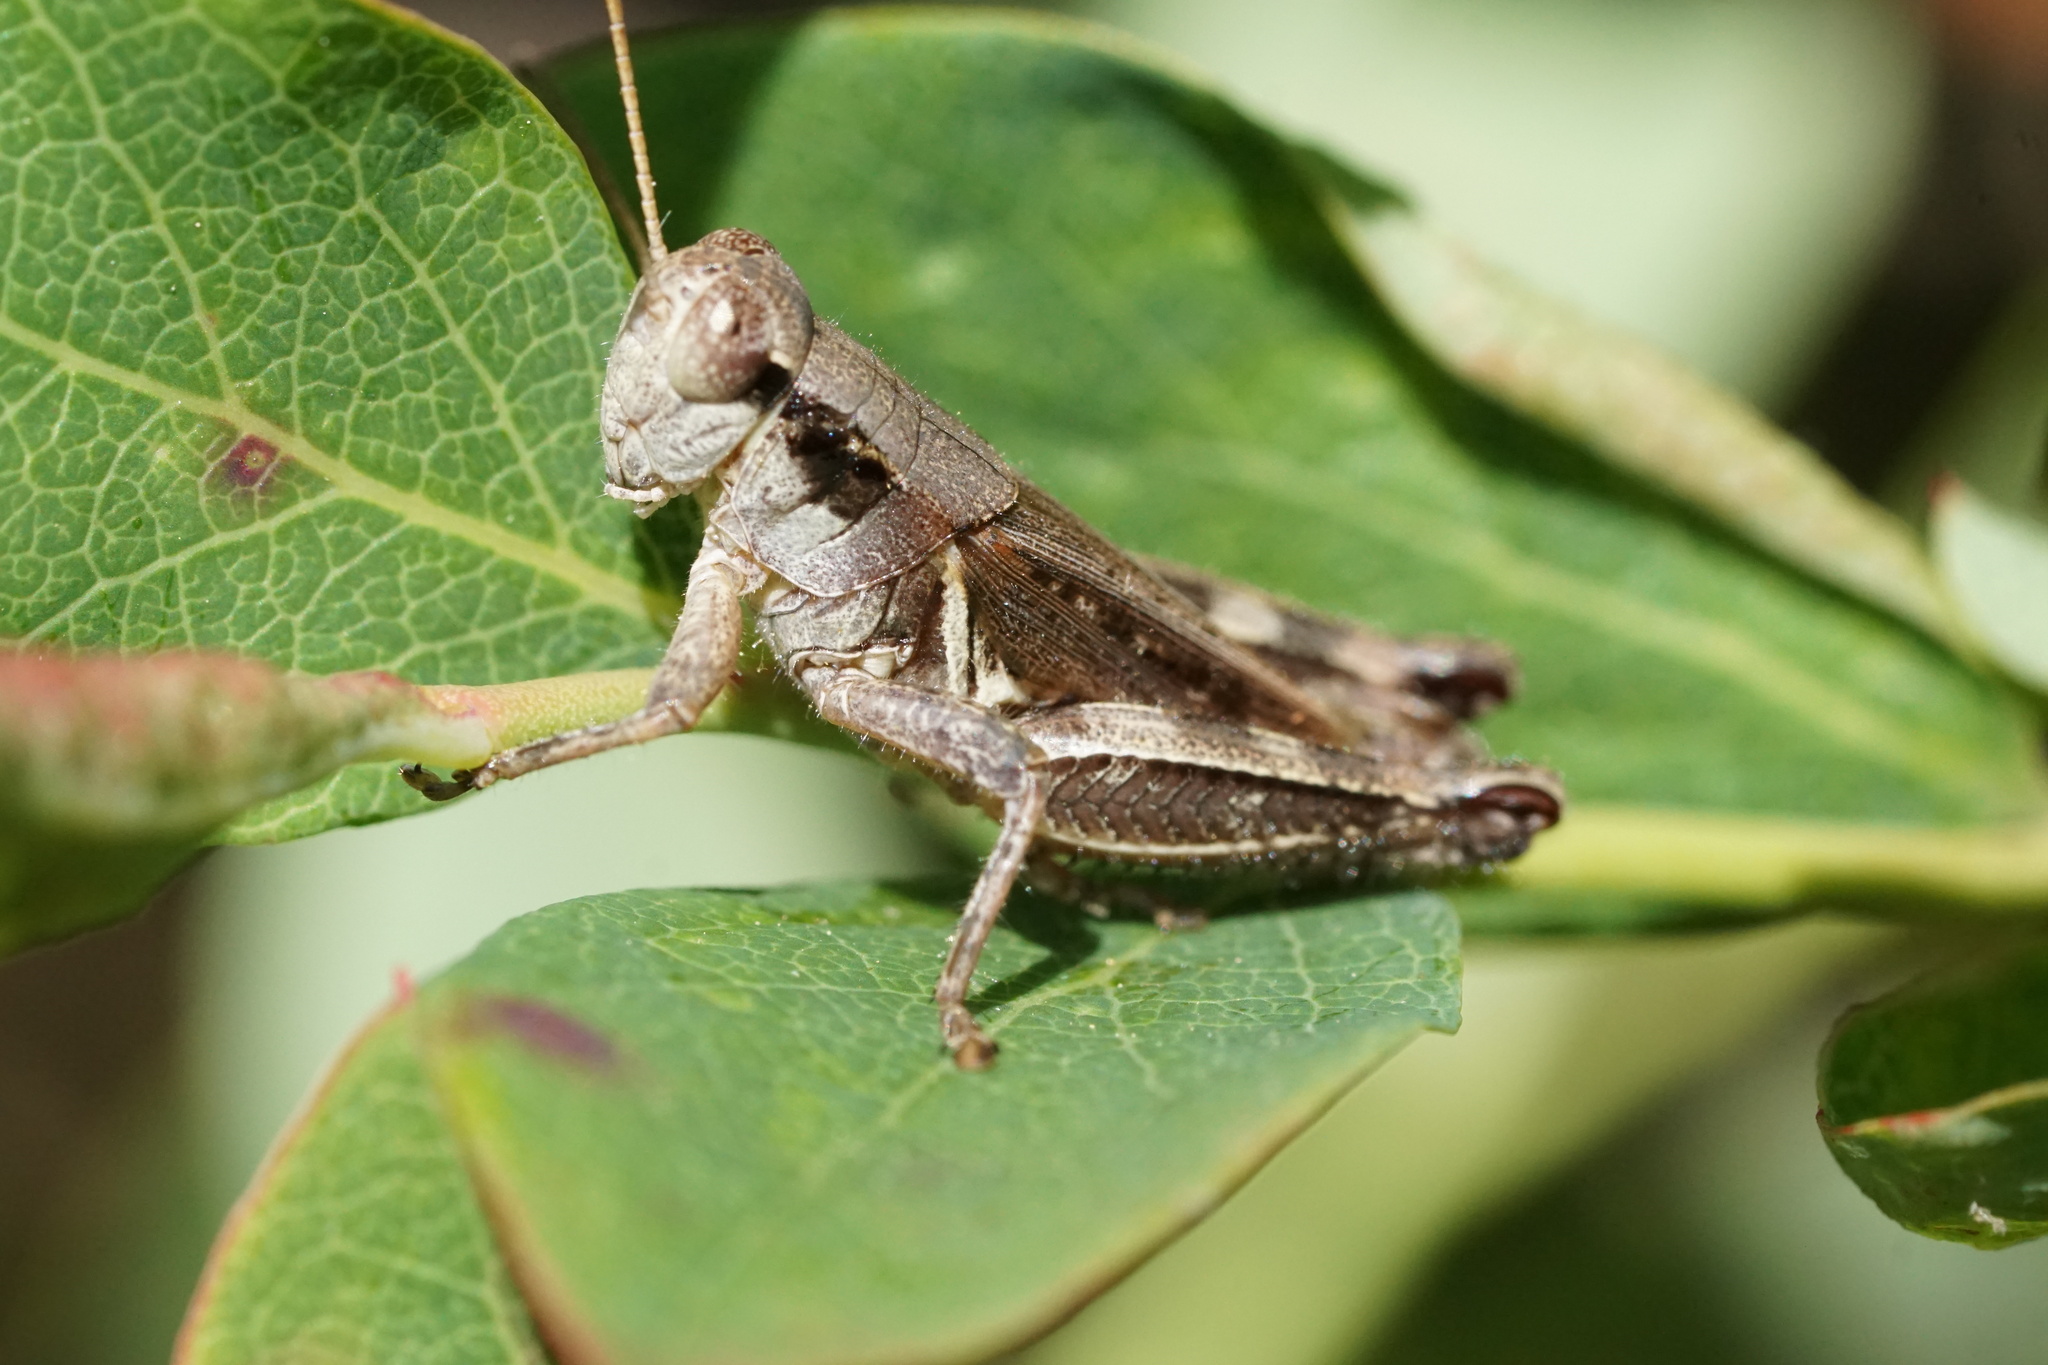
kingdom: Animalia
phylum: Arthropoda
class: Insecta
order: Orthoptera
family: Acrididae
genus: Melanoplus
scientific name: Melanoplus fasciatus
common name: Huckleberry locust
